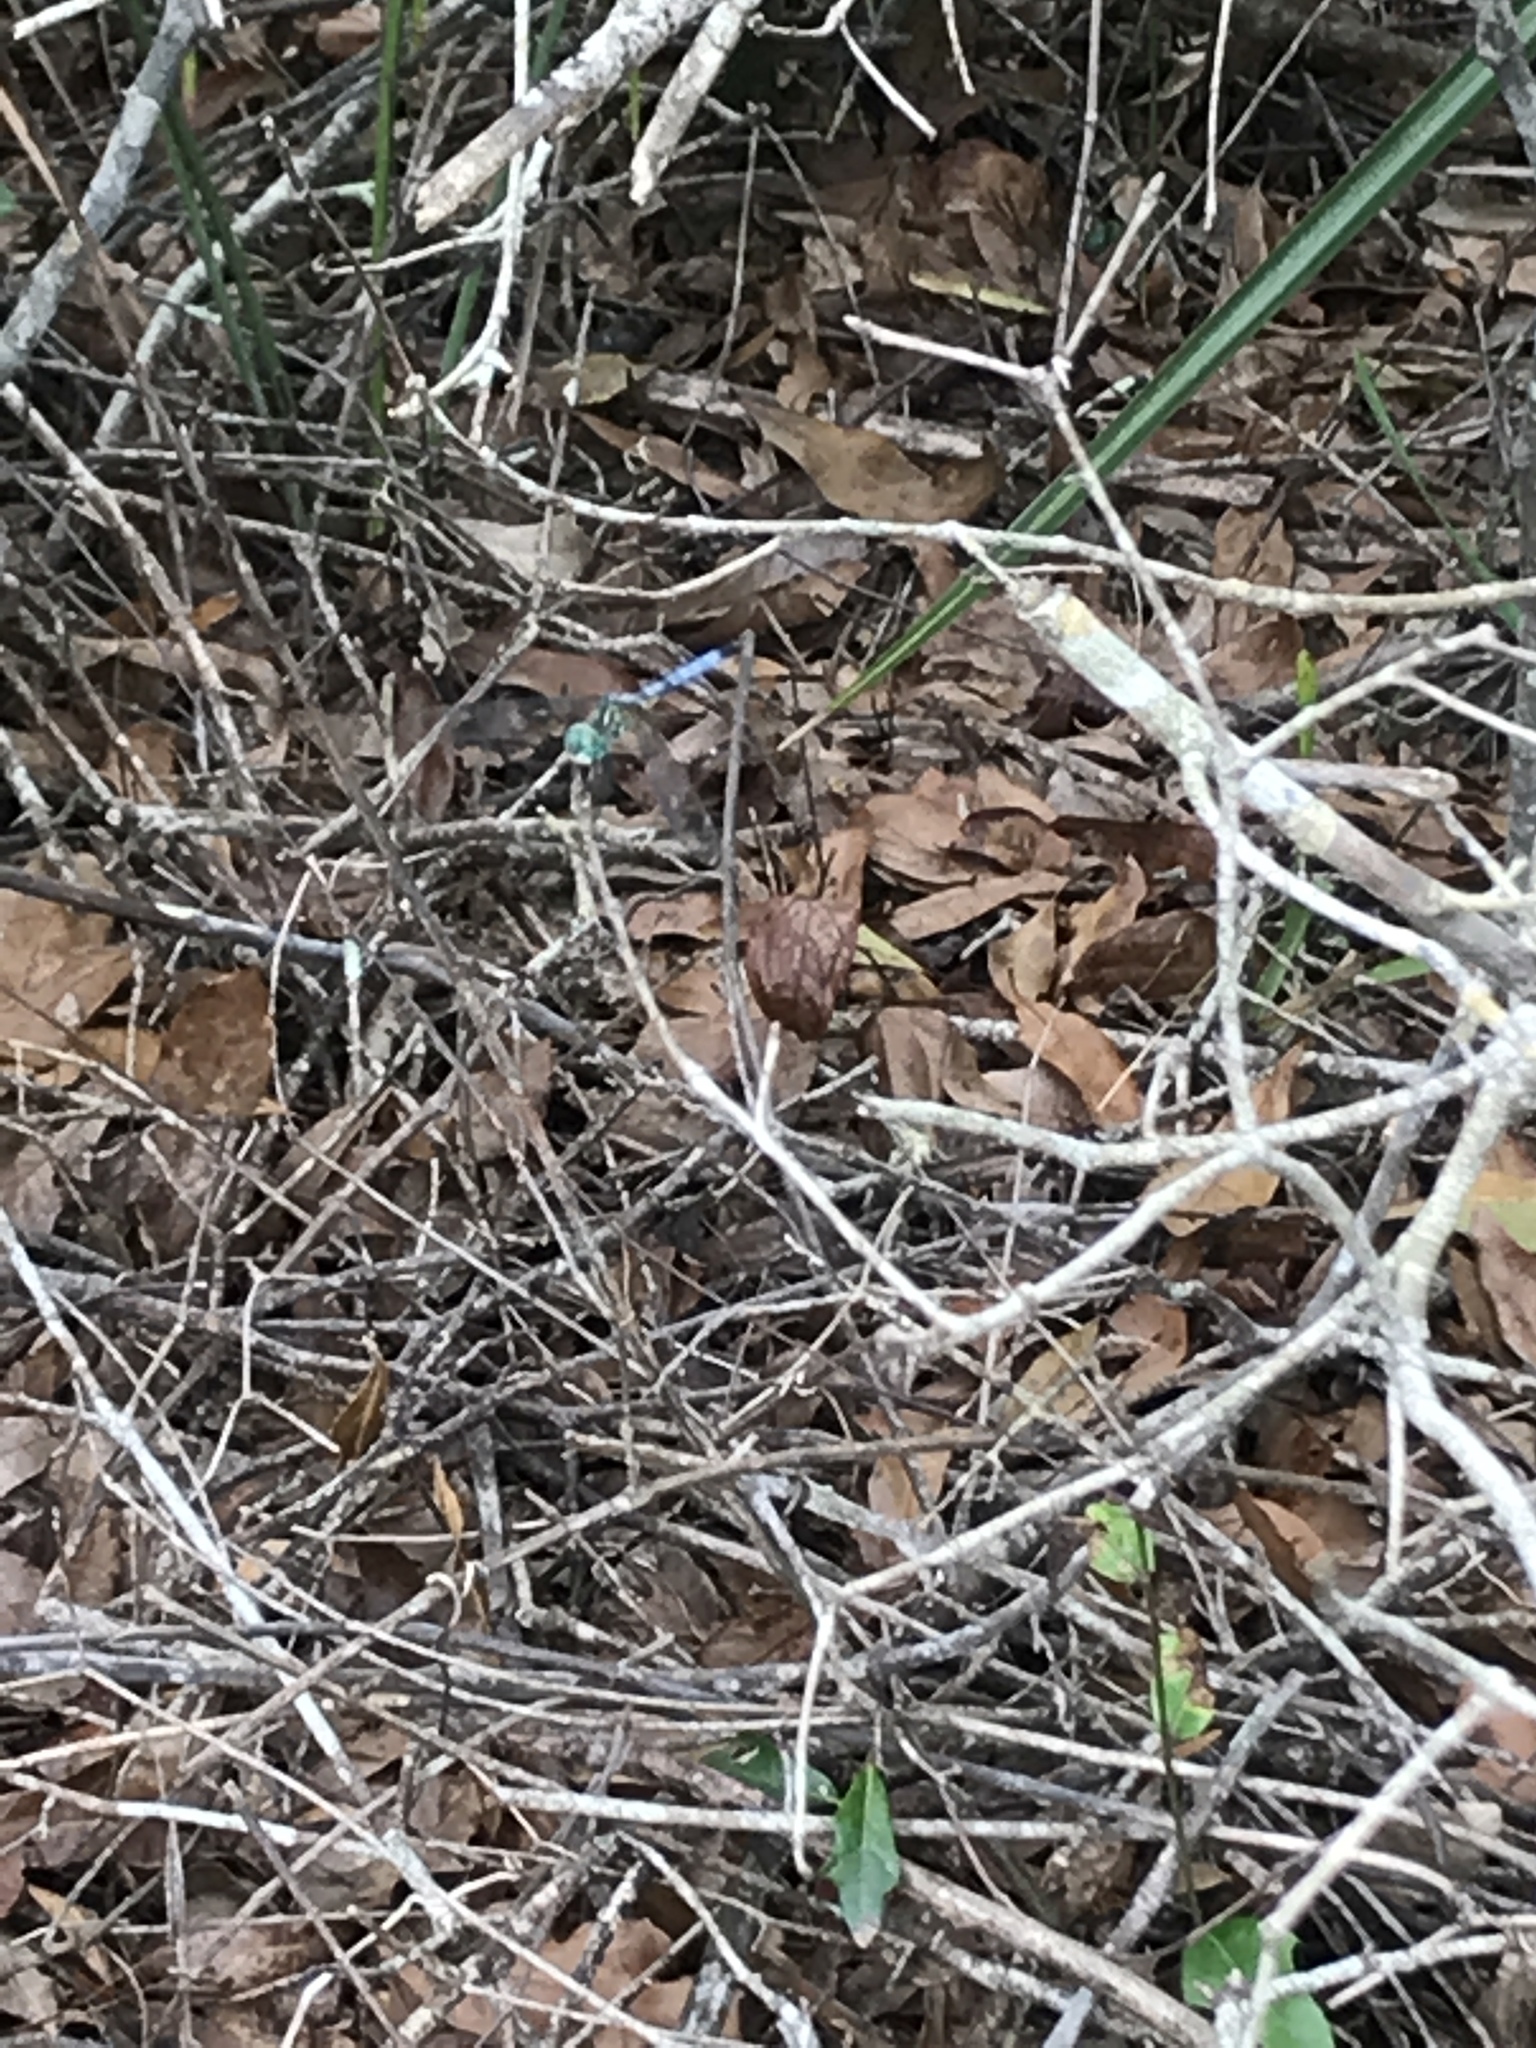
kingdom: Animalia
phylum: Arthropoda
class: Insecta
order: Odonata
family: Libellulidae
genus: Pachydiplax
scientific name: Pachydiplax longipennis
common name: Blue dasher
